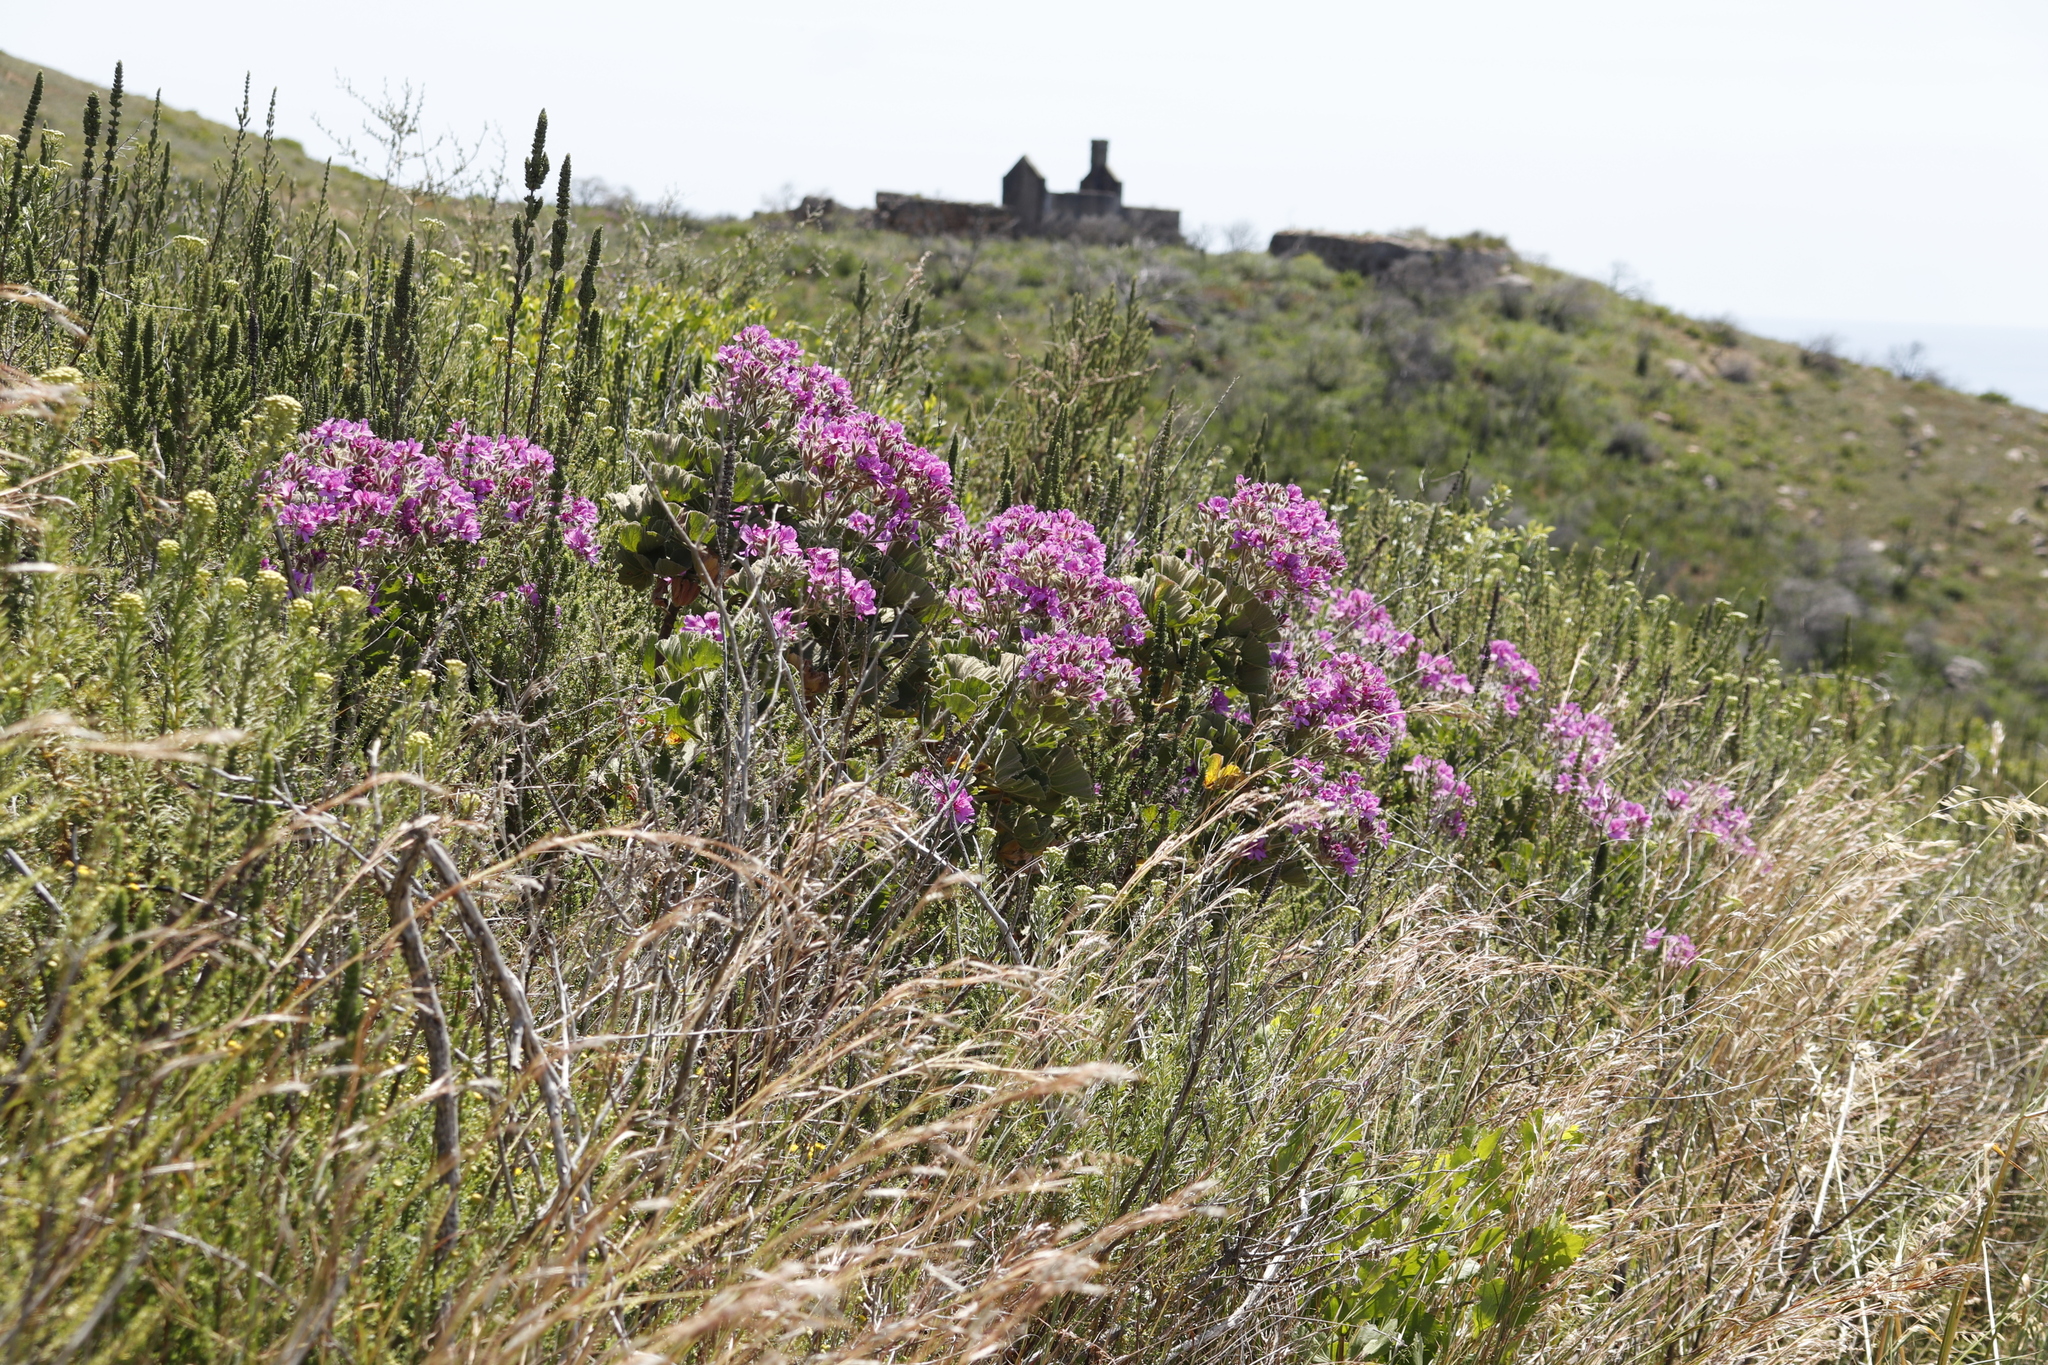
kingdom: Plantae
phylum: Tracheophyta
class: Magnoliopsida
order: Geraniales
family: Geraniaceae
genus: Pelargonium
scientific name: Pelargonium cucullatum
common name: Tree pelargonium
